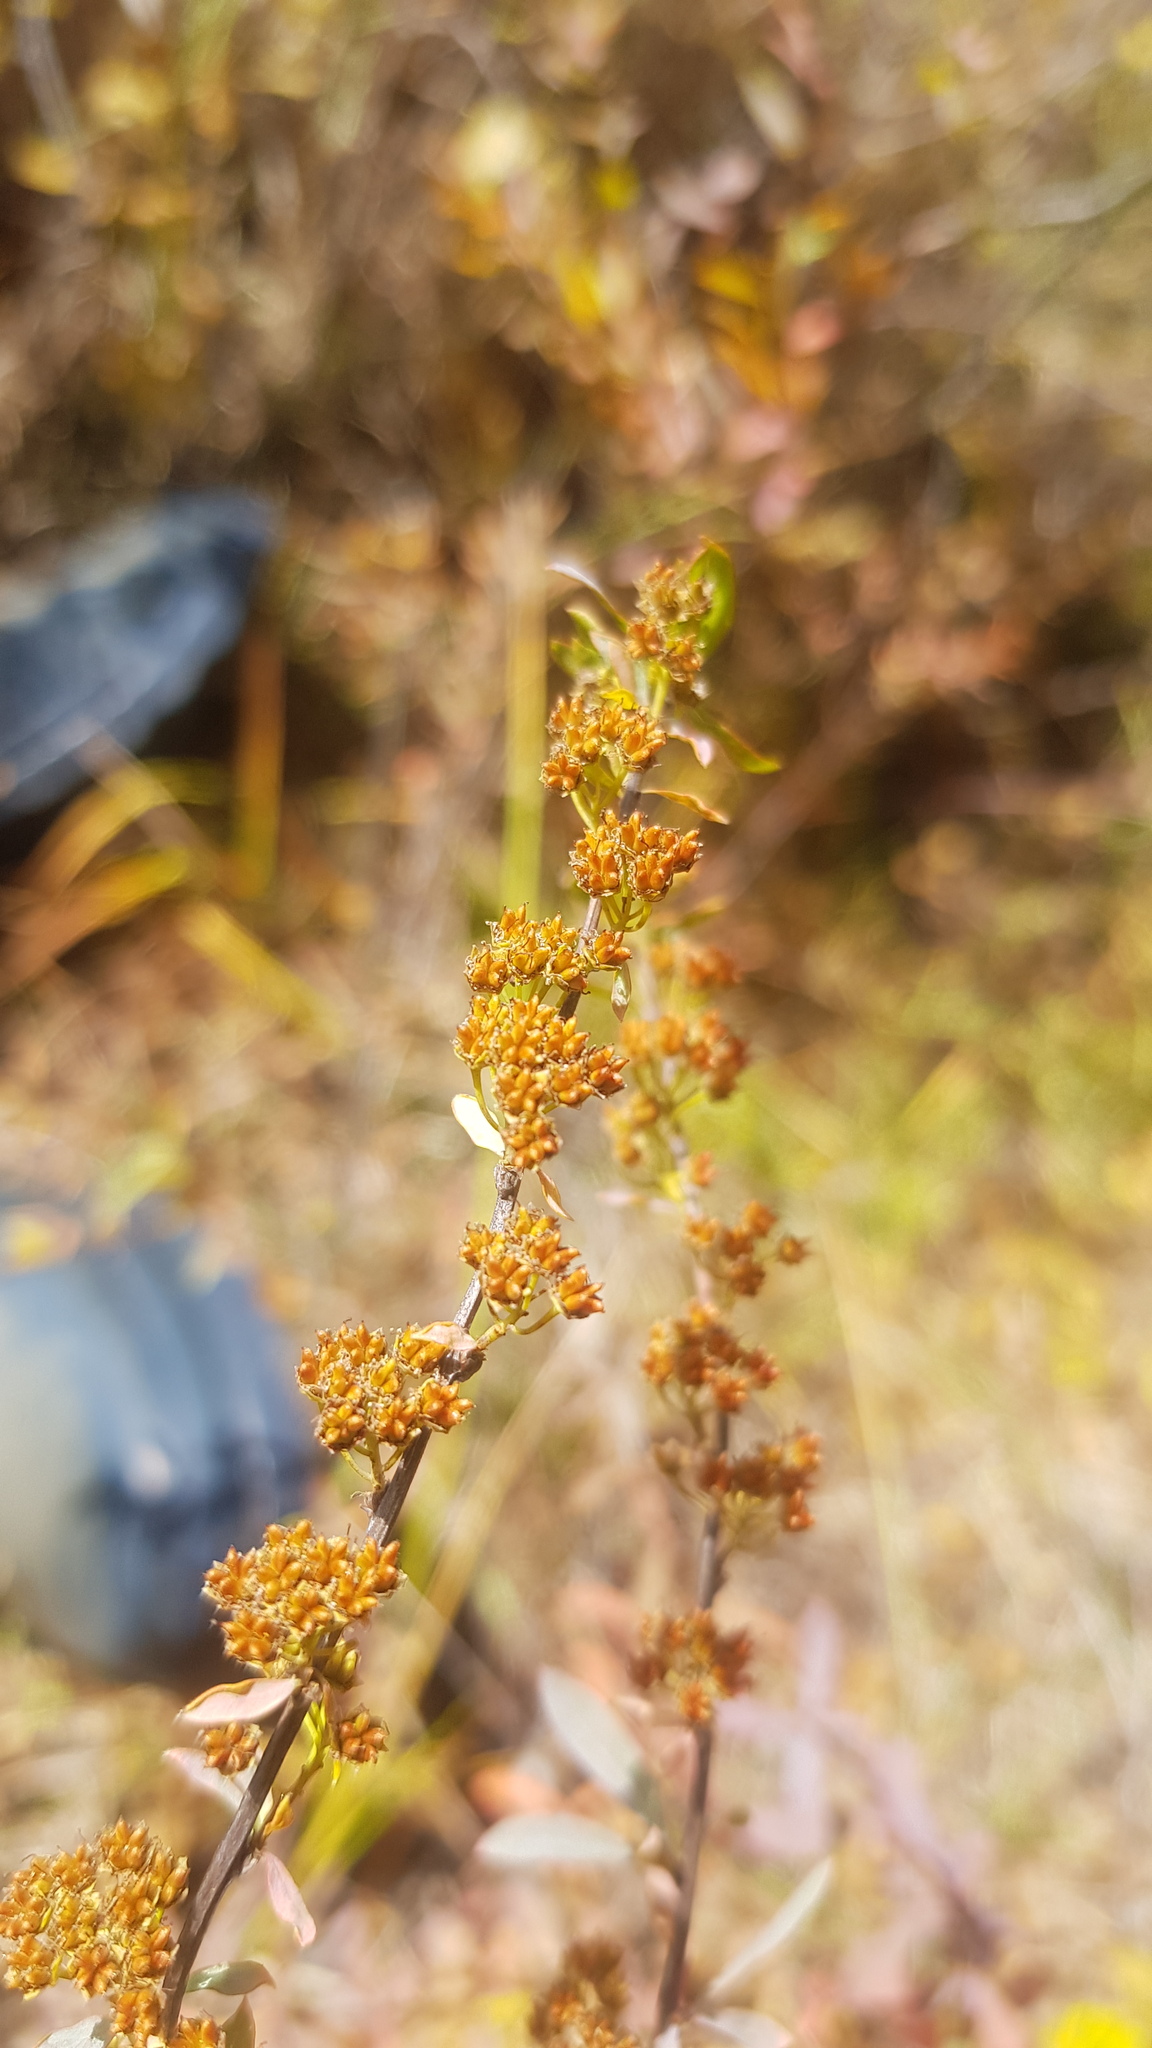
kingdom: Plantae
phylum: Tracheophyta
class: Magnoliopsida
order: Rosales
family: Rosaceae
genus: Spiraea
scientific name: Spiraea alpina
